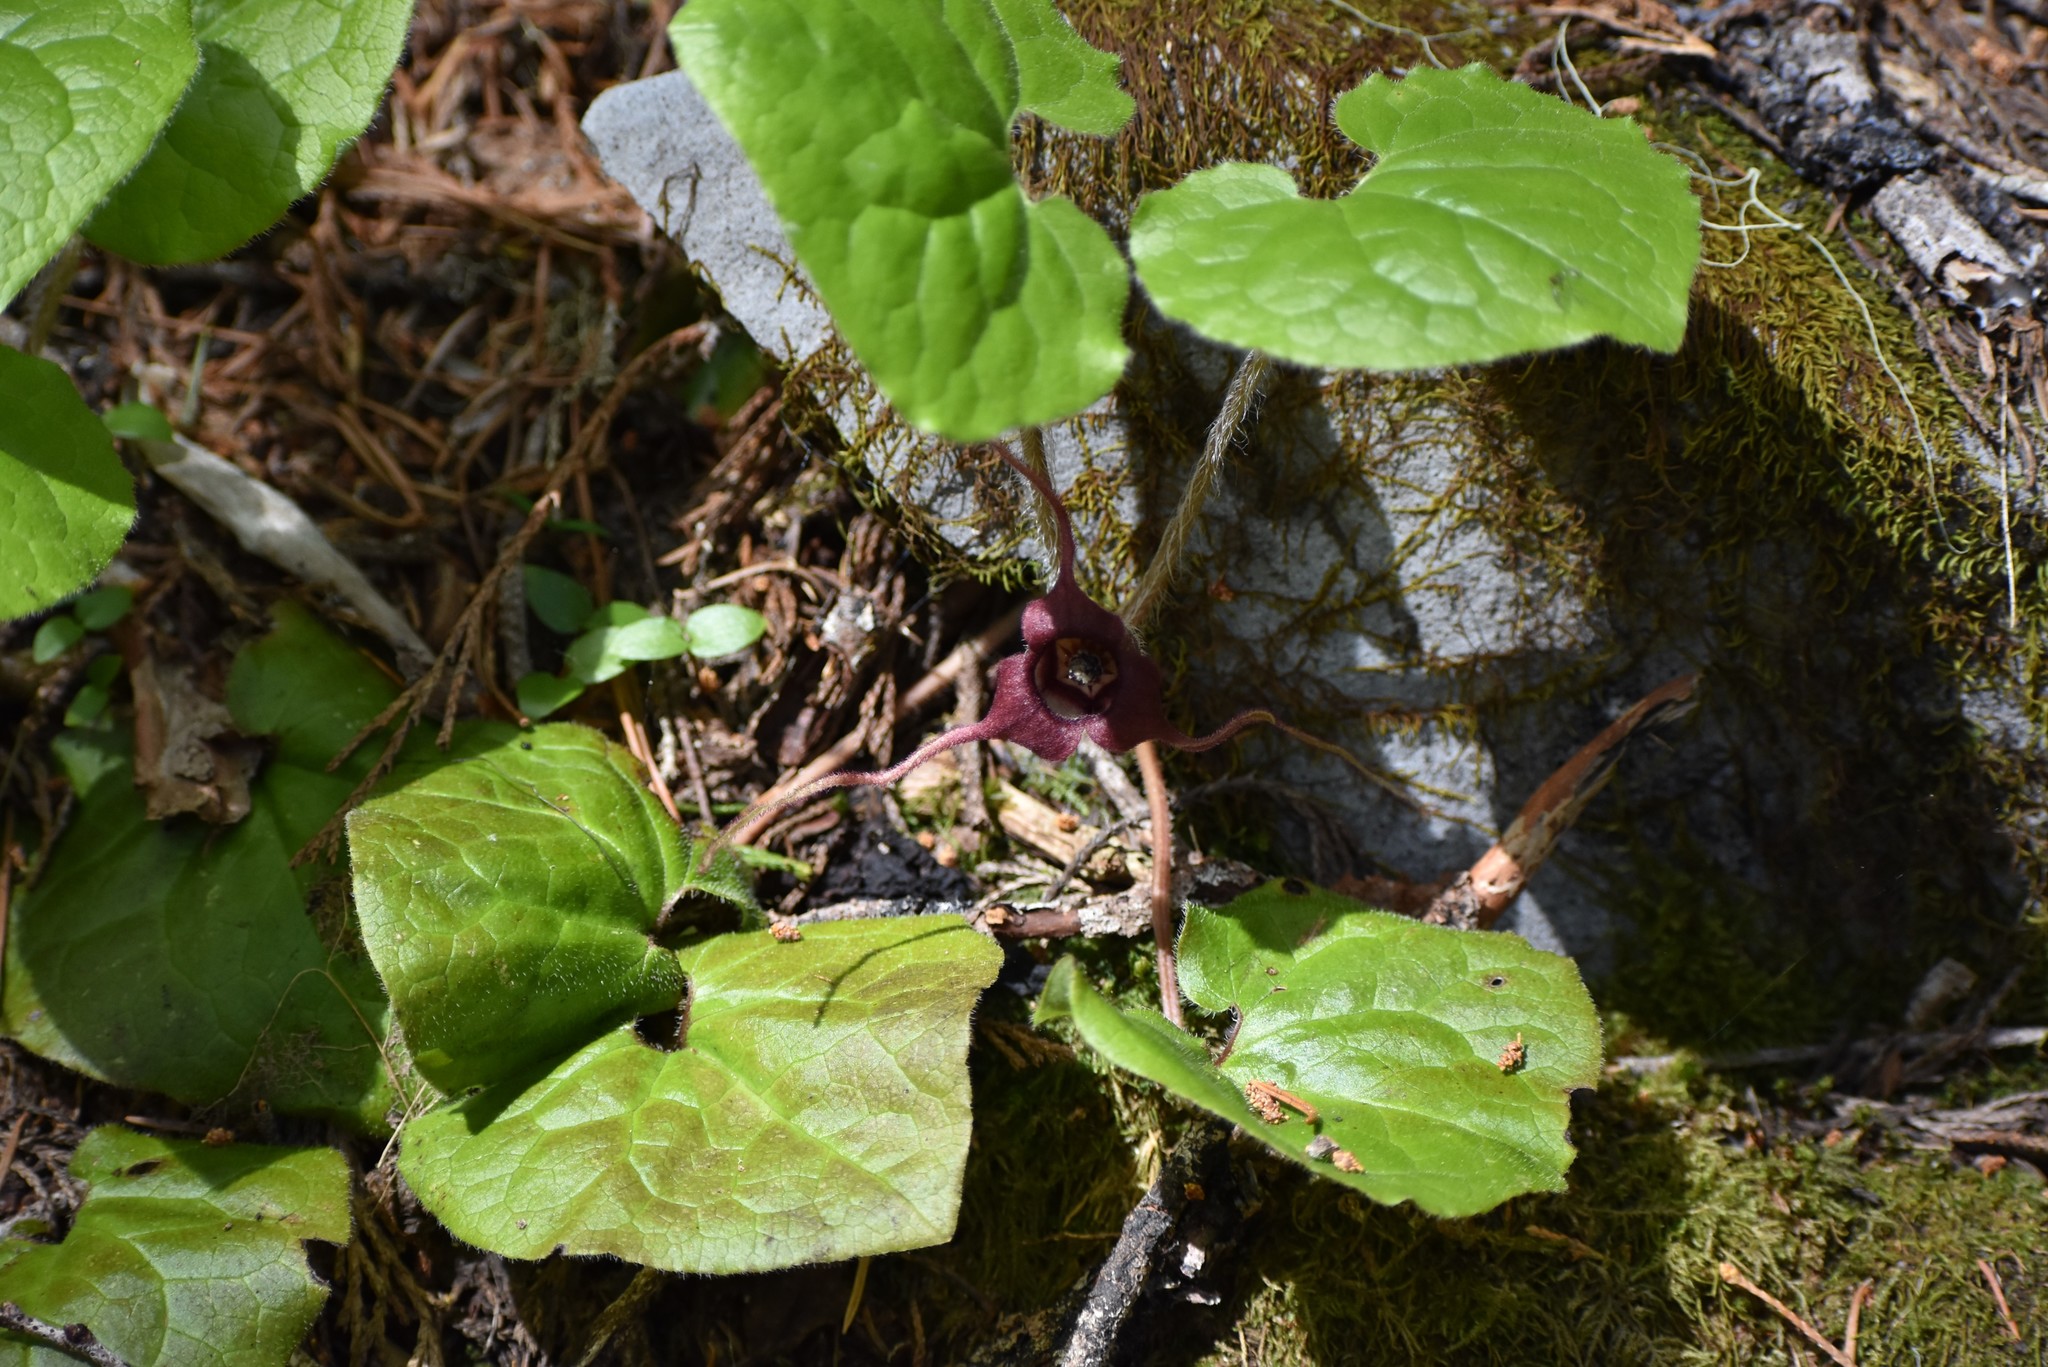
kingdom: Plantae
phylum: Tracheophyta
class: Magnoliopsida
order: Piperales
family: Aristolochiaceae
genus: Asarum
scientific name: Asarum caudatum
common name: Wild ginger
